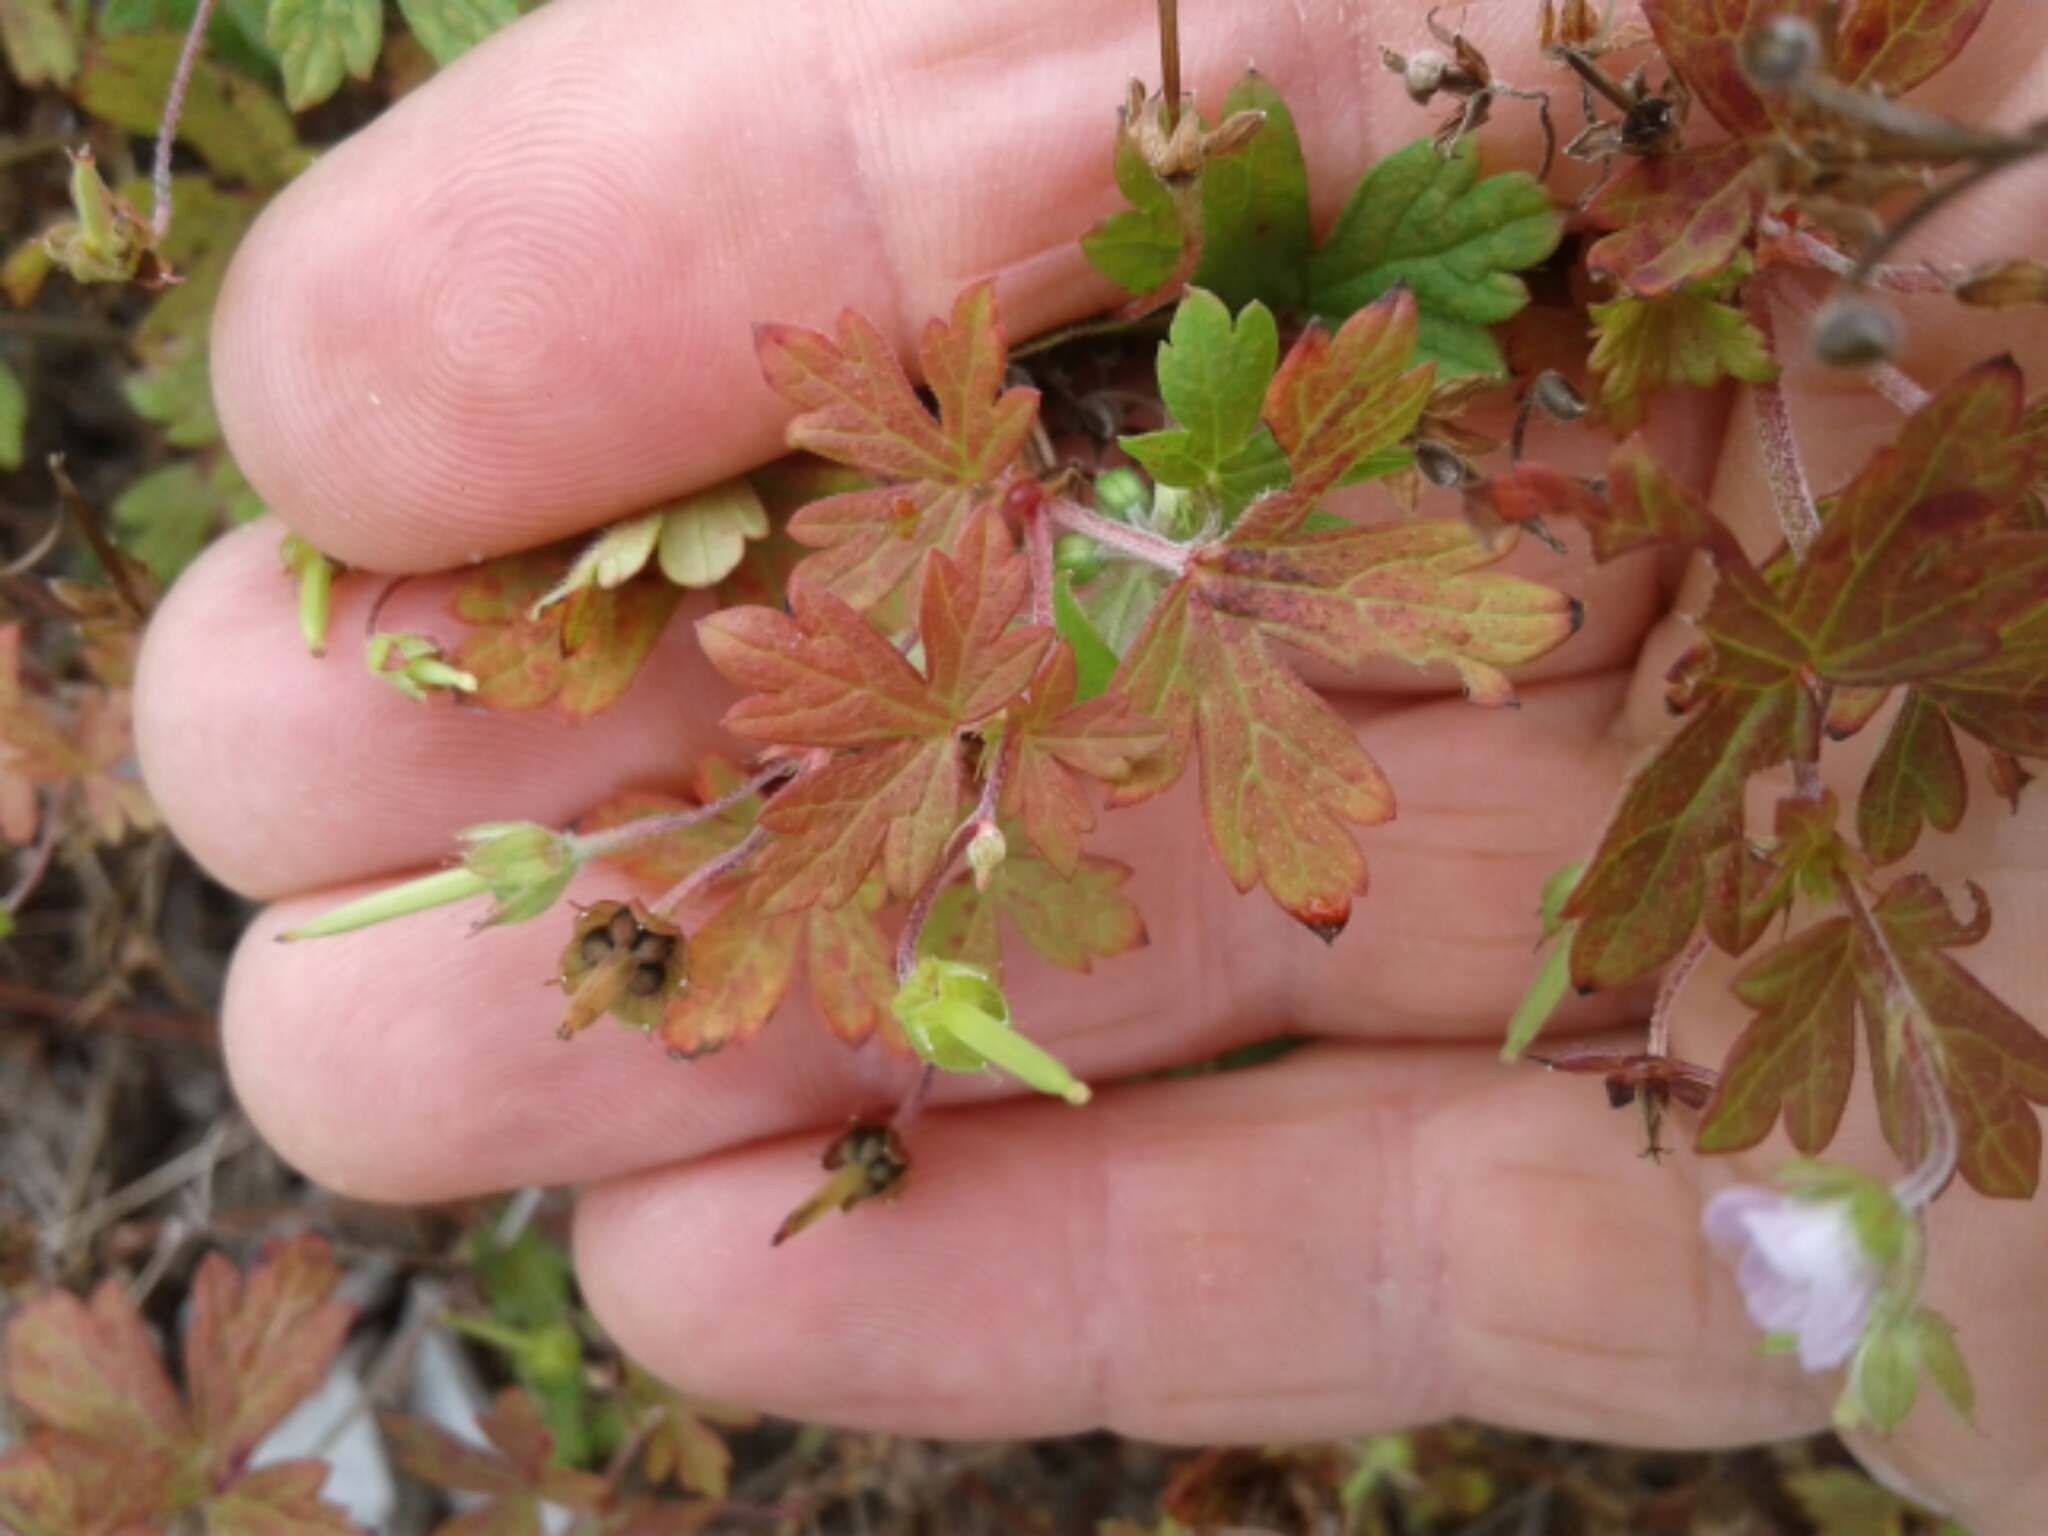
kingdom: Plantae
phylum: Tracheophyta
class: Magnoliopsida
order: Geraniales
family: Geraniaceae
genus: Geranium
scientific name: Geranium
